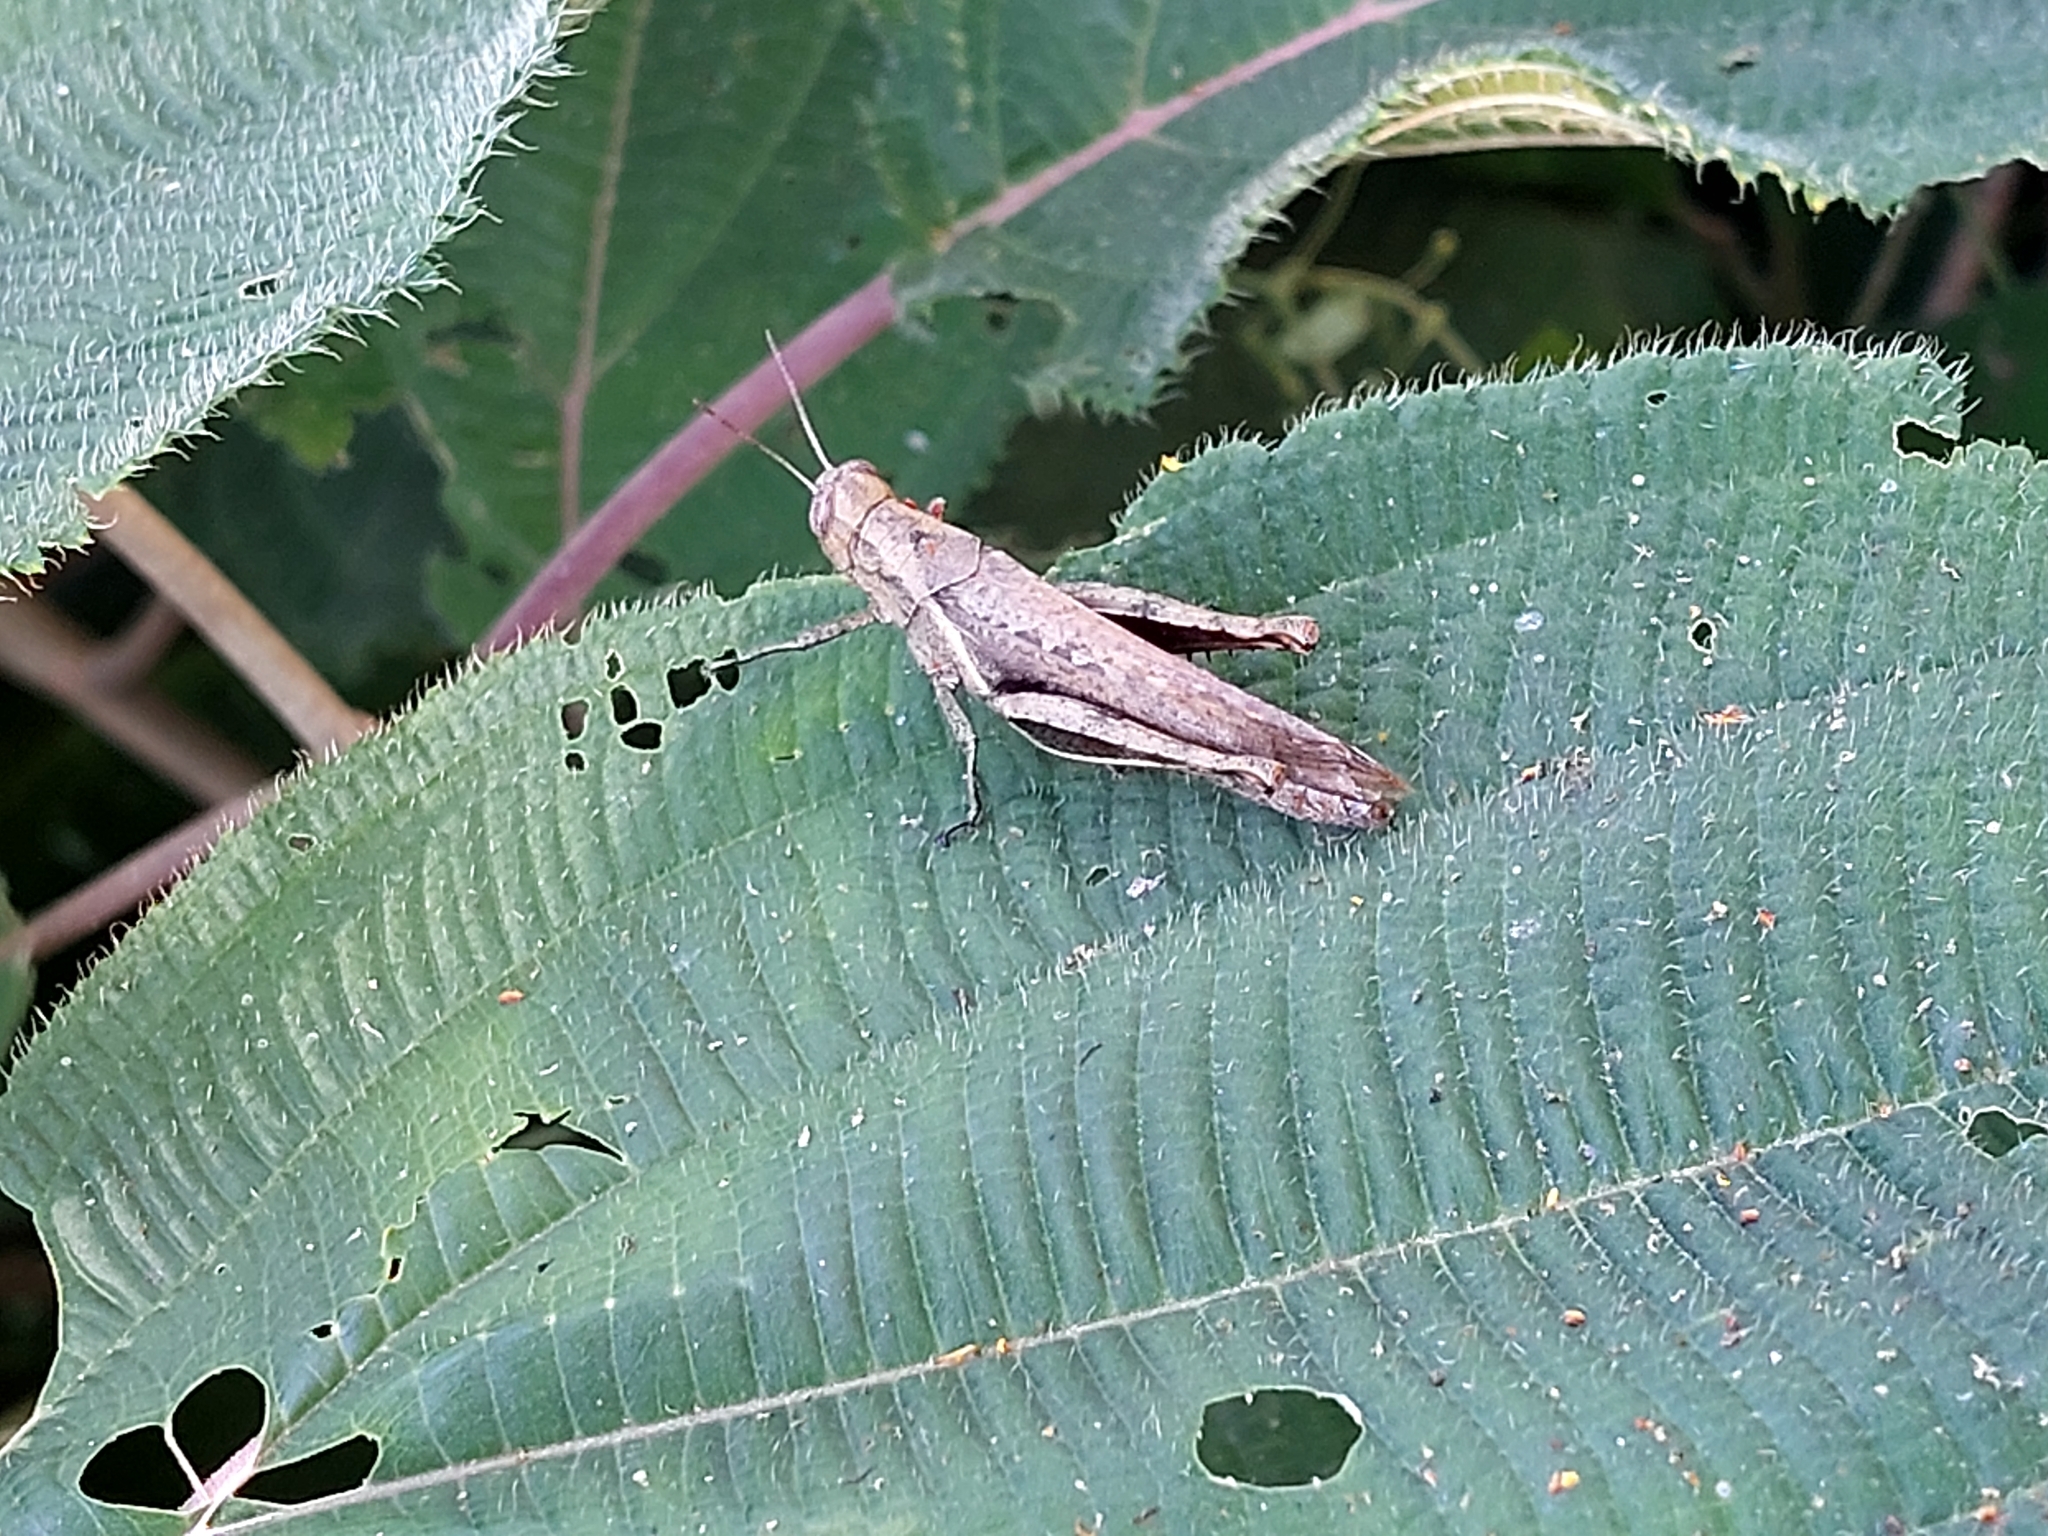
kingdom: Animalia
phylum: Arthropoda
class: Insecta
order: Orthoptera
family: Acrididae
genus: Abracris
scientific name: Abracris flavolineata
